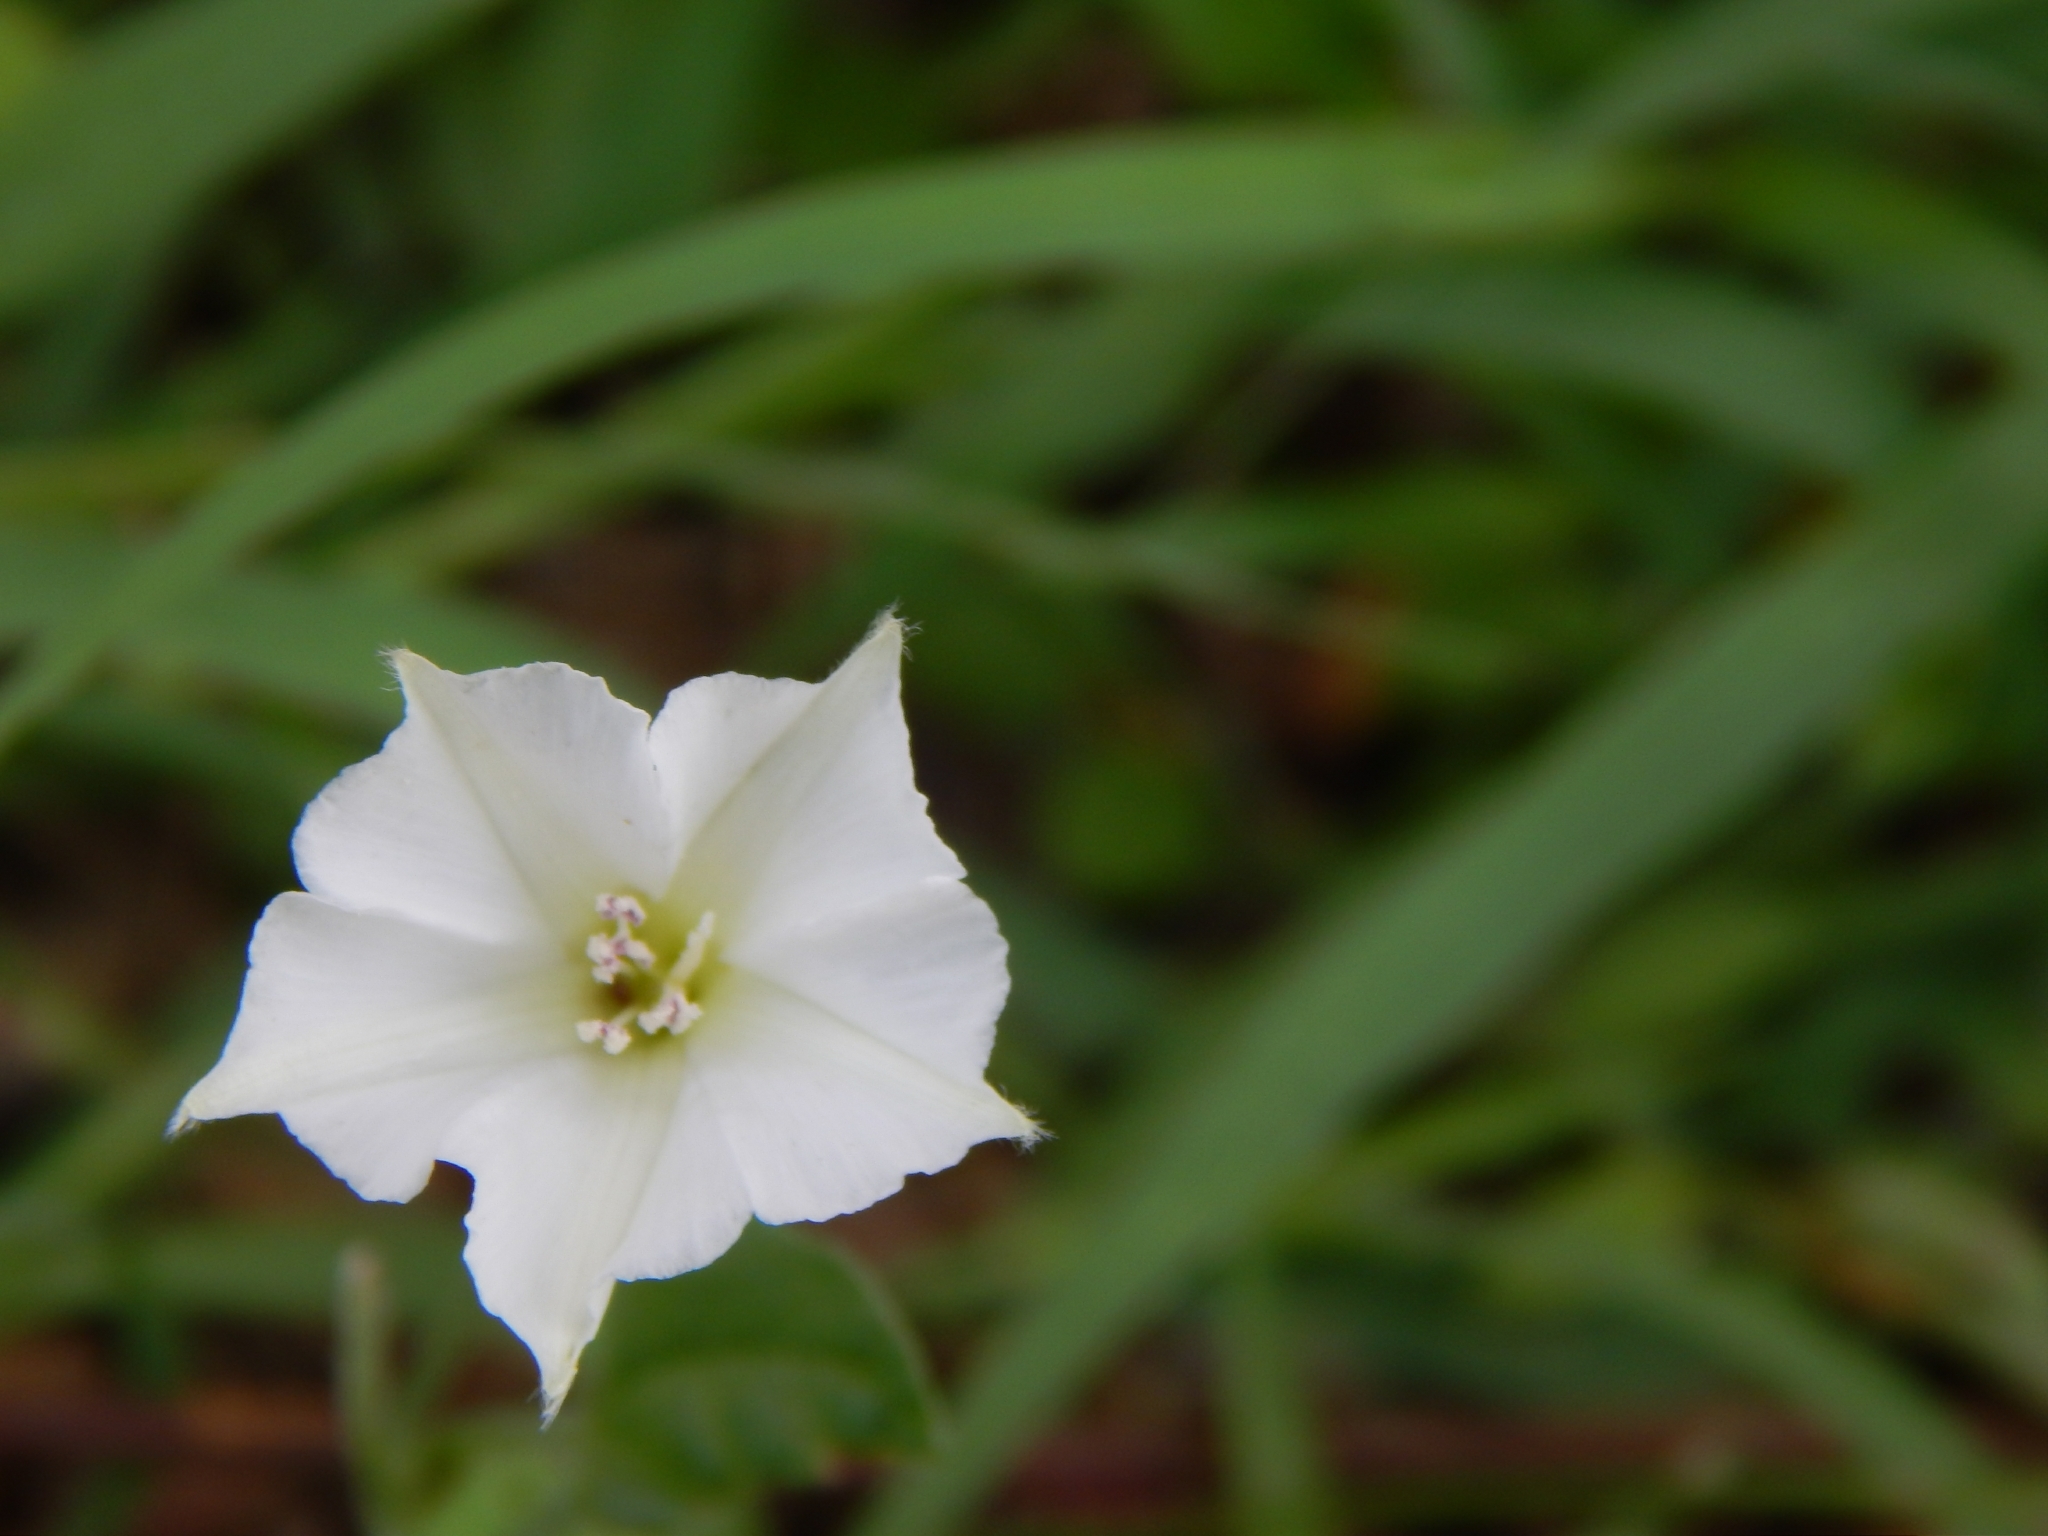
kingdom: Plantae
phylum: Tracheophyta
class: Magnoliopsida
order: Solanales
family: Convolvulaceae
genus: Convolvulus
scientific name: Convolvulus equitans
